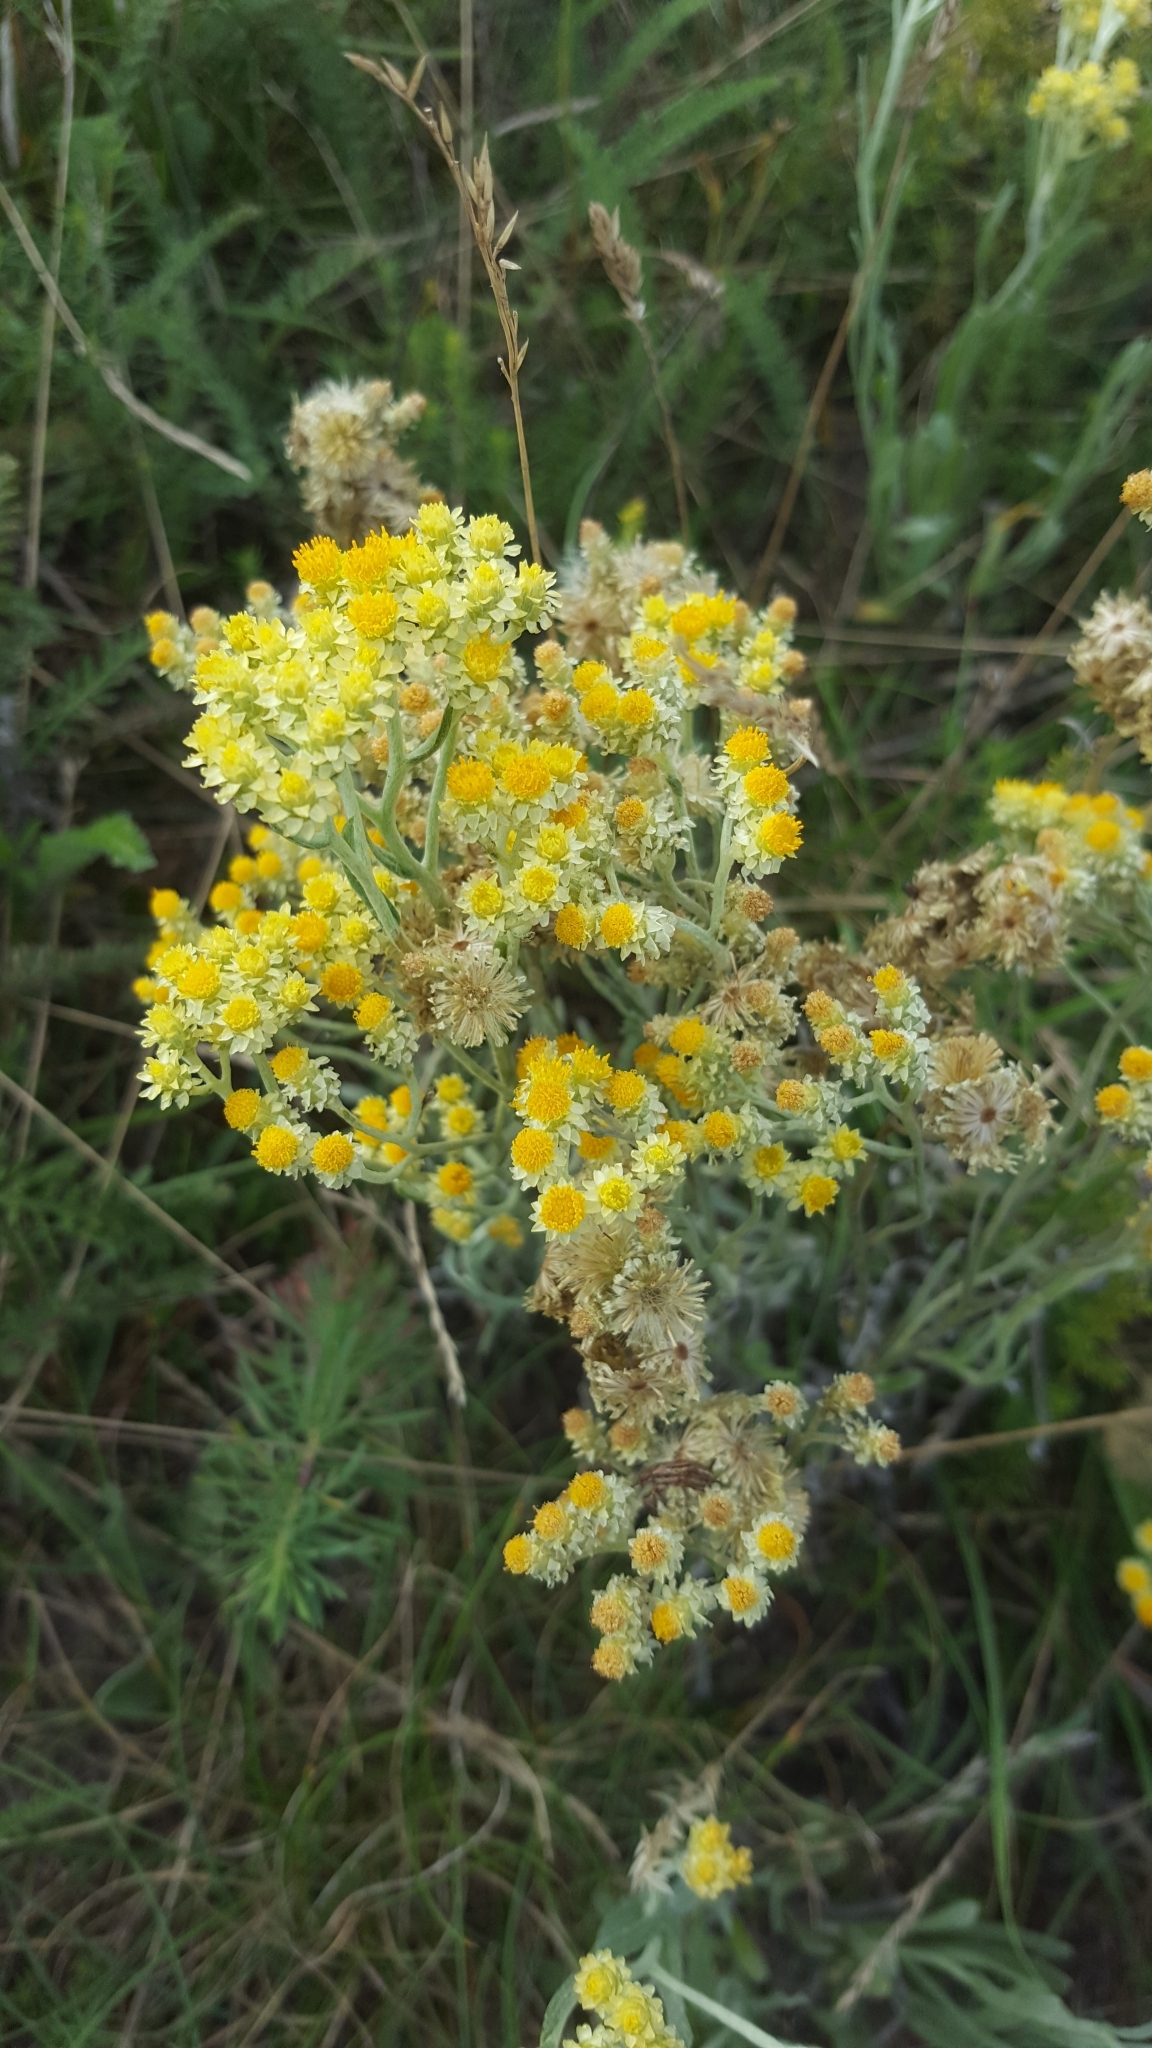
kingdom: Plantae
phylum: Tracheophyta
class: Magnoliopsida
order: Asterales
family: Asteraceae
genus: Helichrysum
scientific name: Helichrysum arenarium
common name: Strawflower
